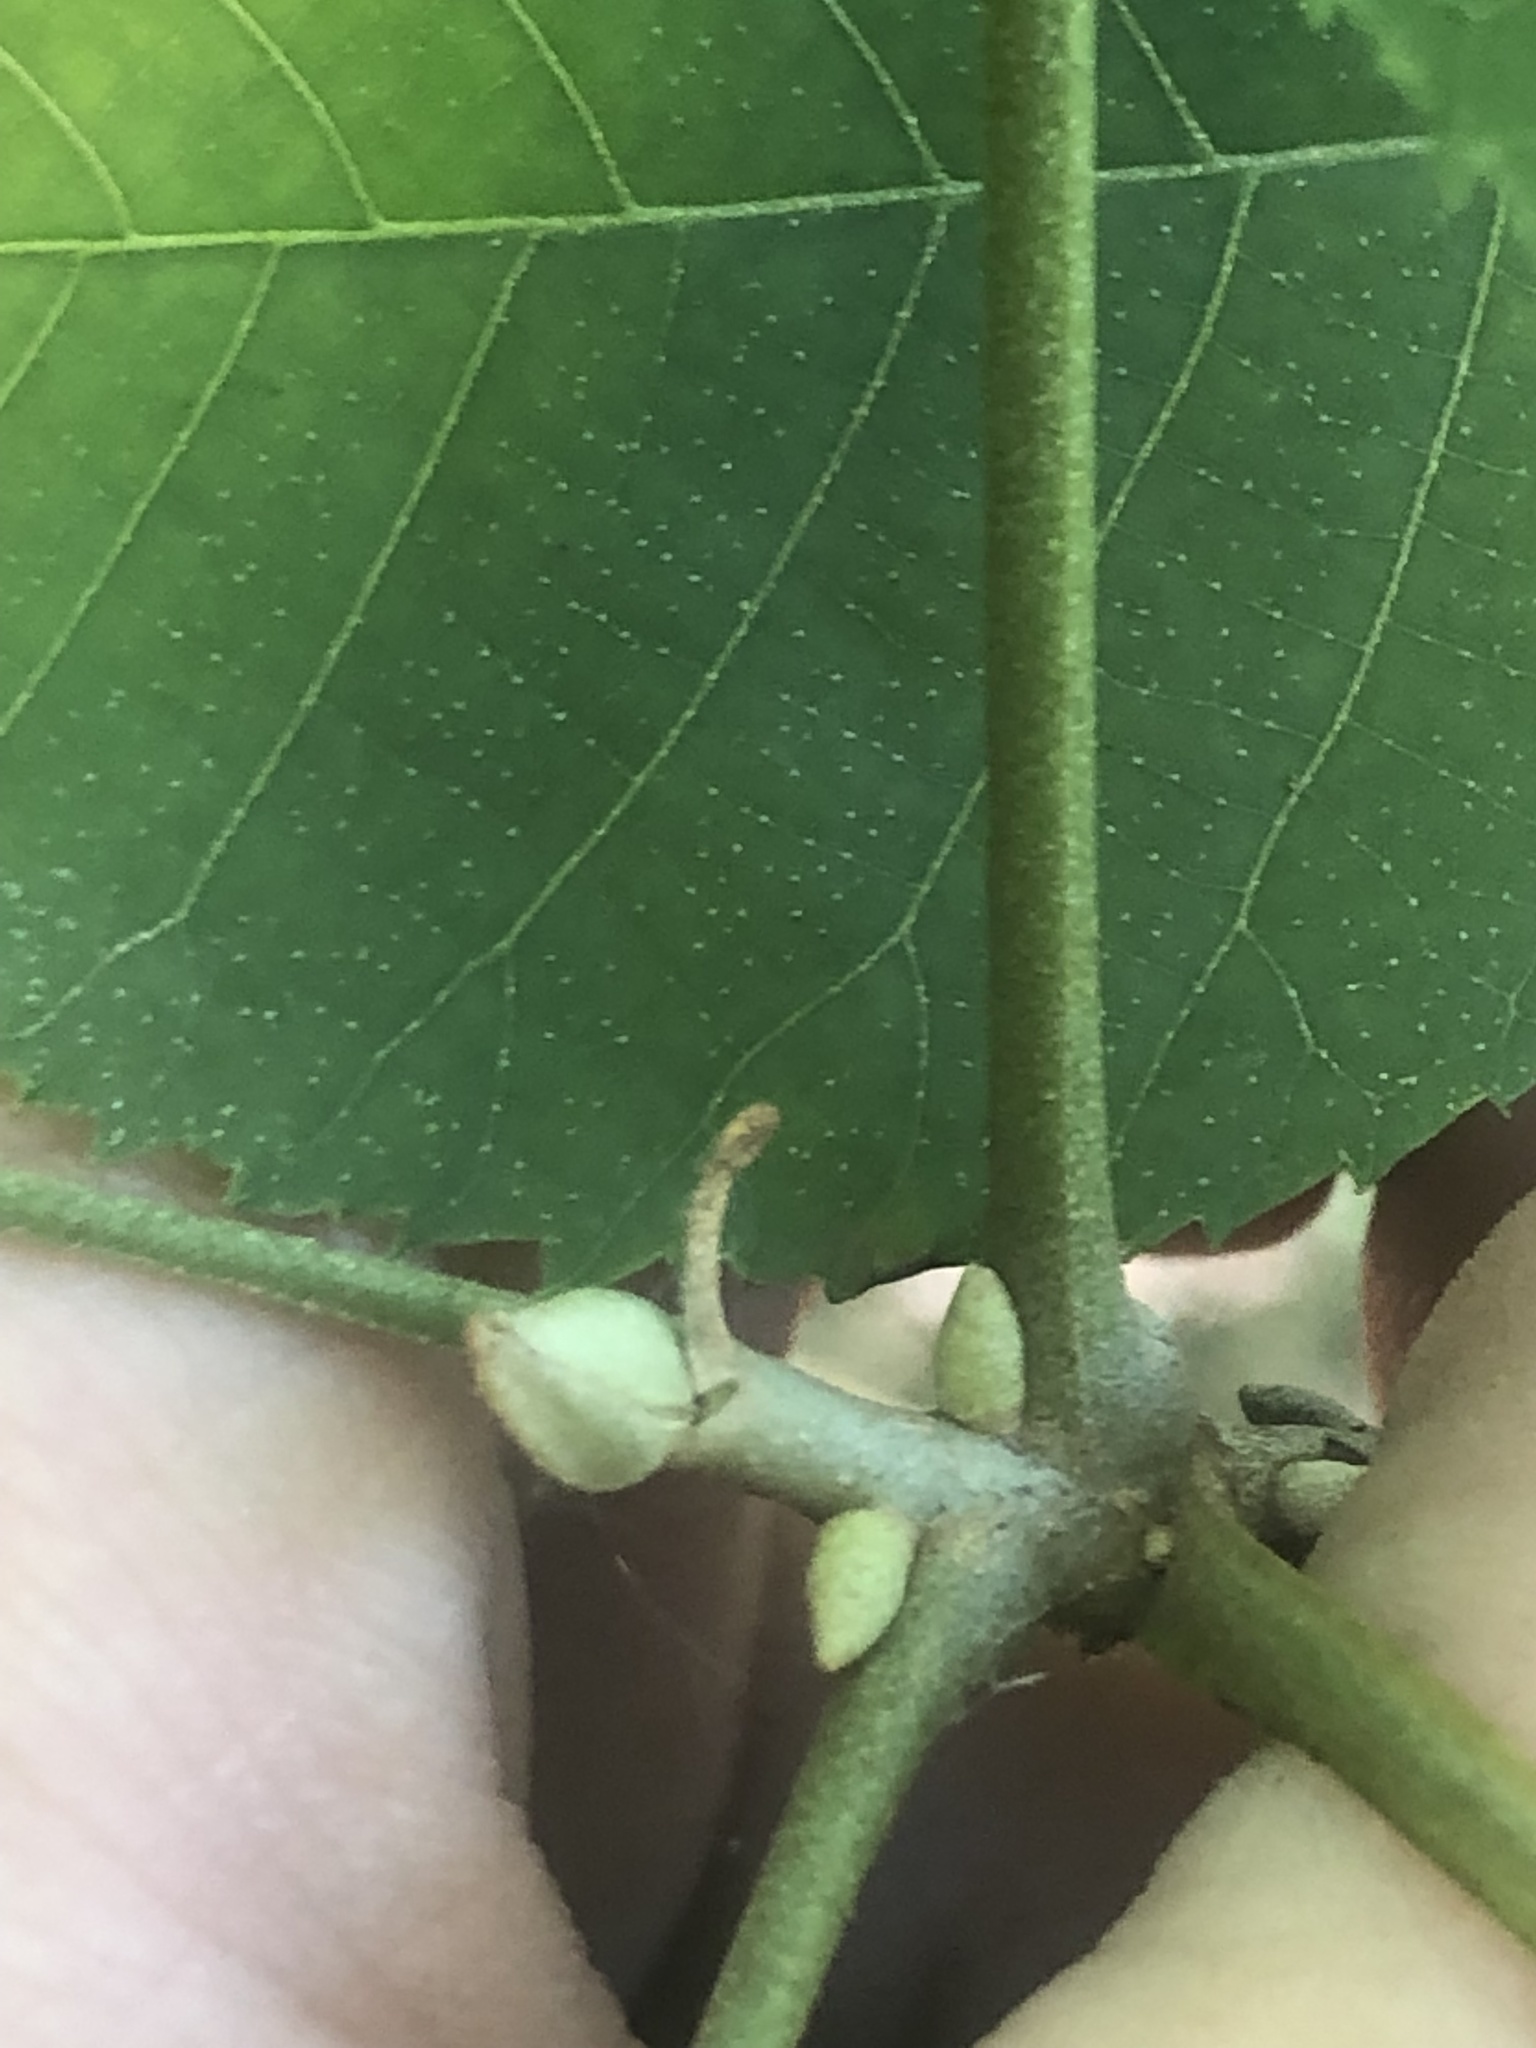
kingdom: Plantae
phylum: Tracheophyta
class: Magnoliopsida
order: Fagales
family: Juglandaceae
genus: Carya
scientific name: Carya myristiciformis
